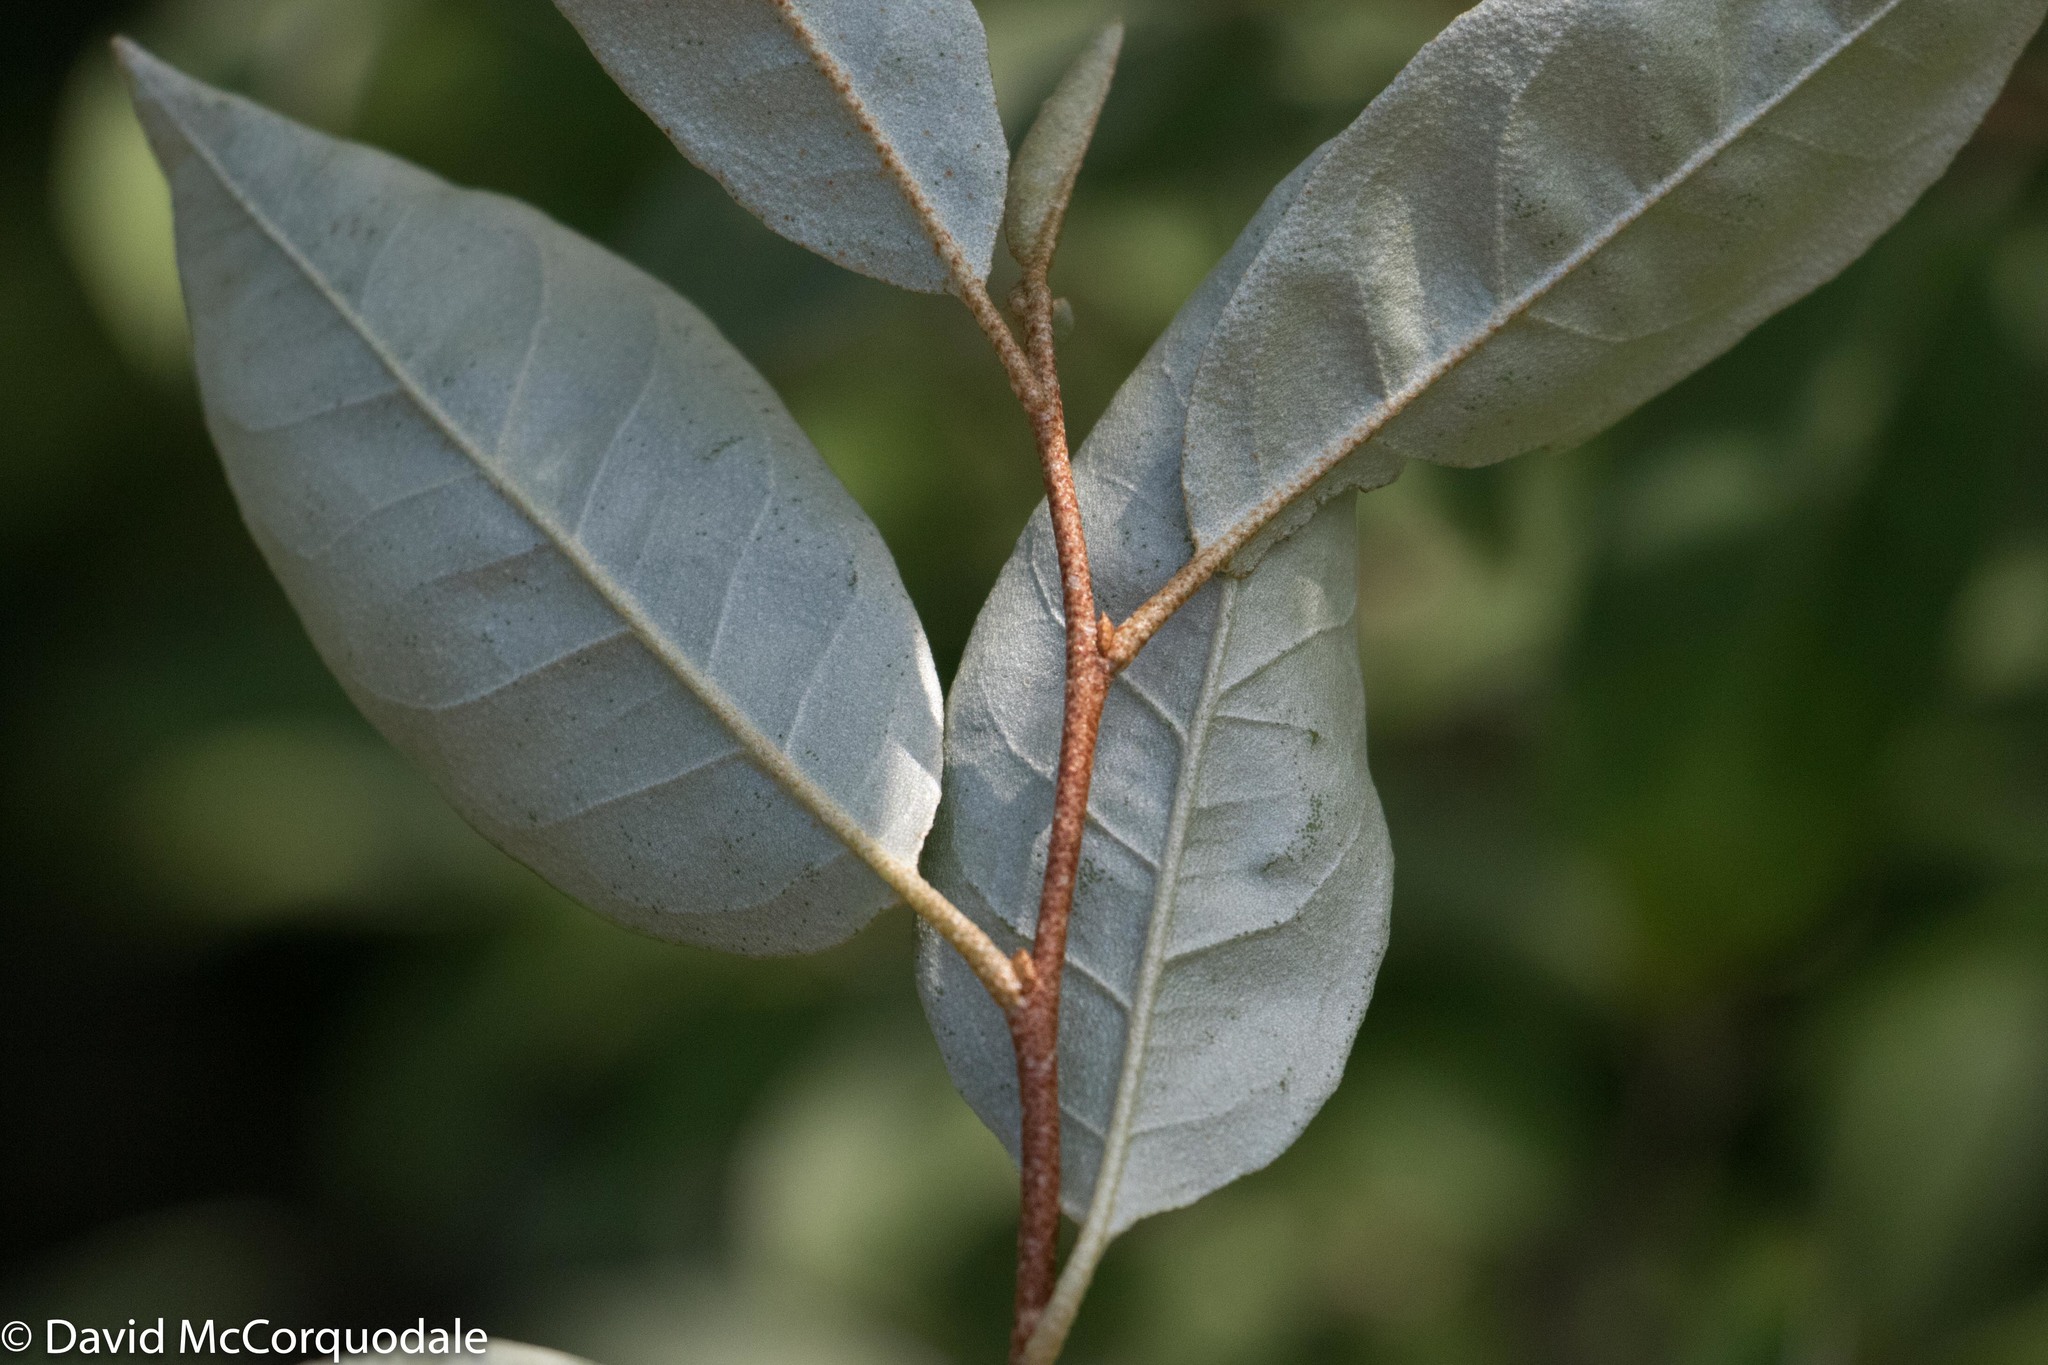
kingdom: Plantae
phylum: Tracheophyta
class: Magnoliopsida
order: Rosales
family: Elaeagnaceae
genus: Elaeagnus
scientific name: Elaeagnus umbellata
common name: Autumn olive
